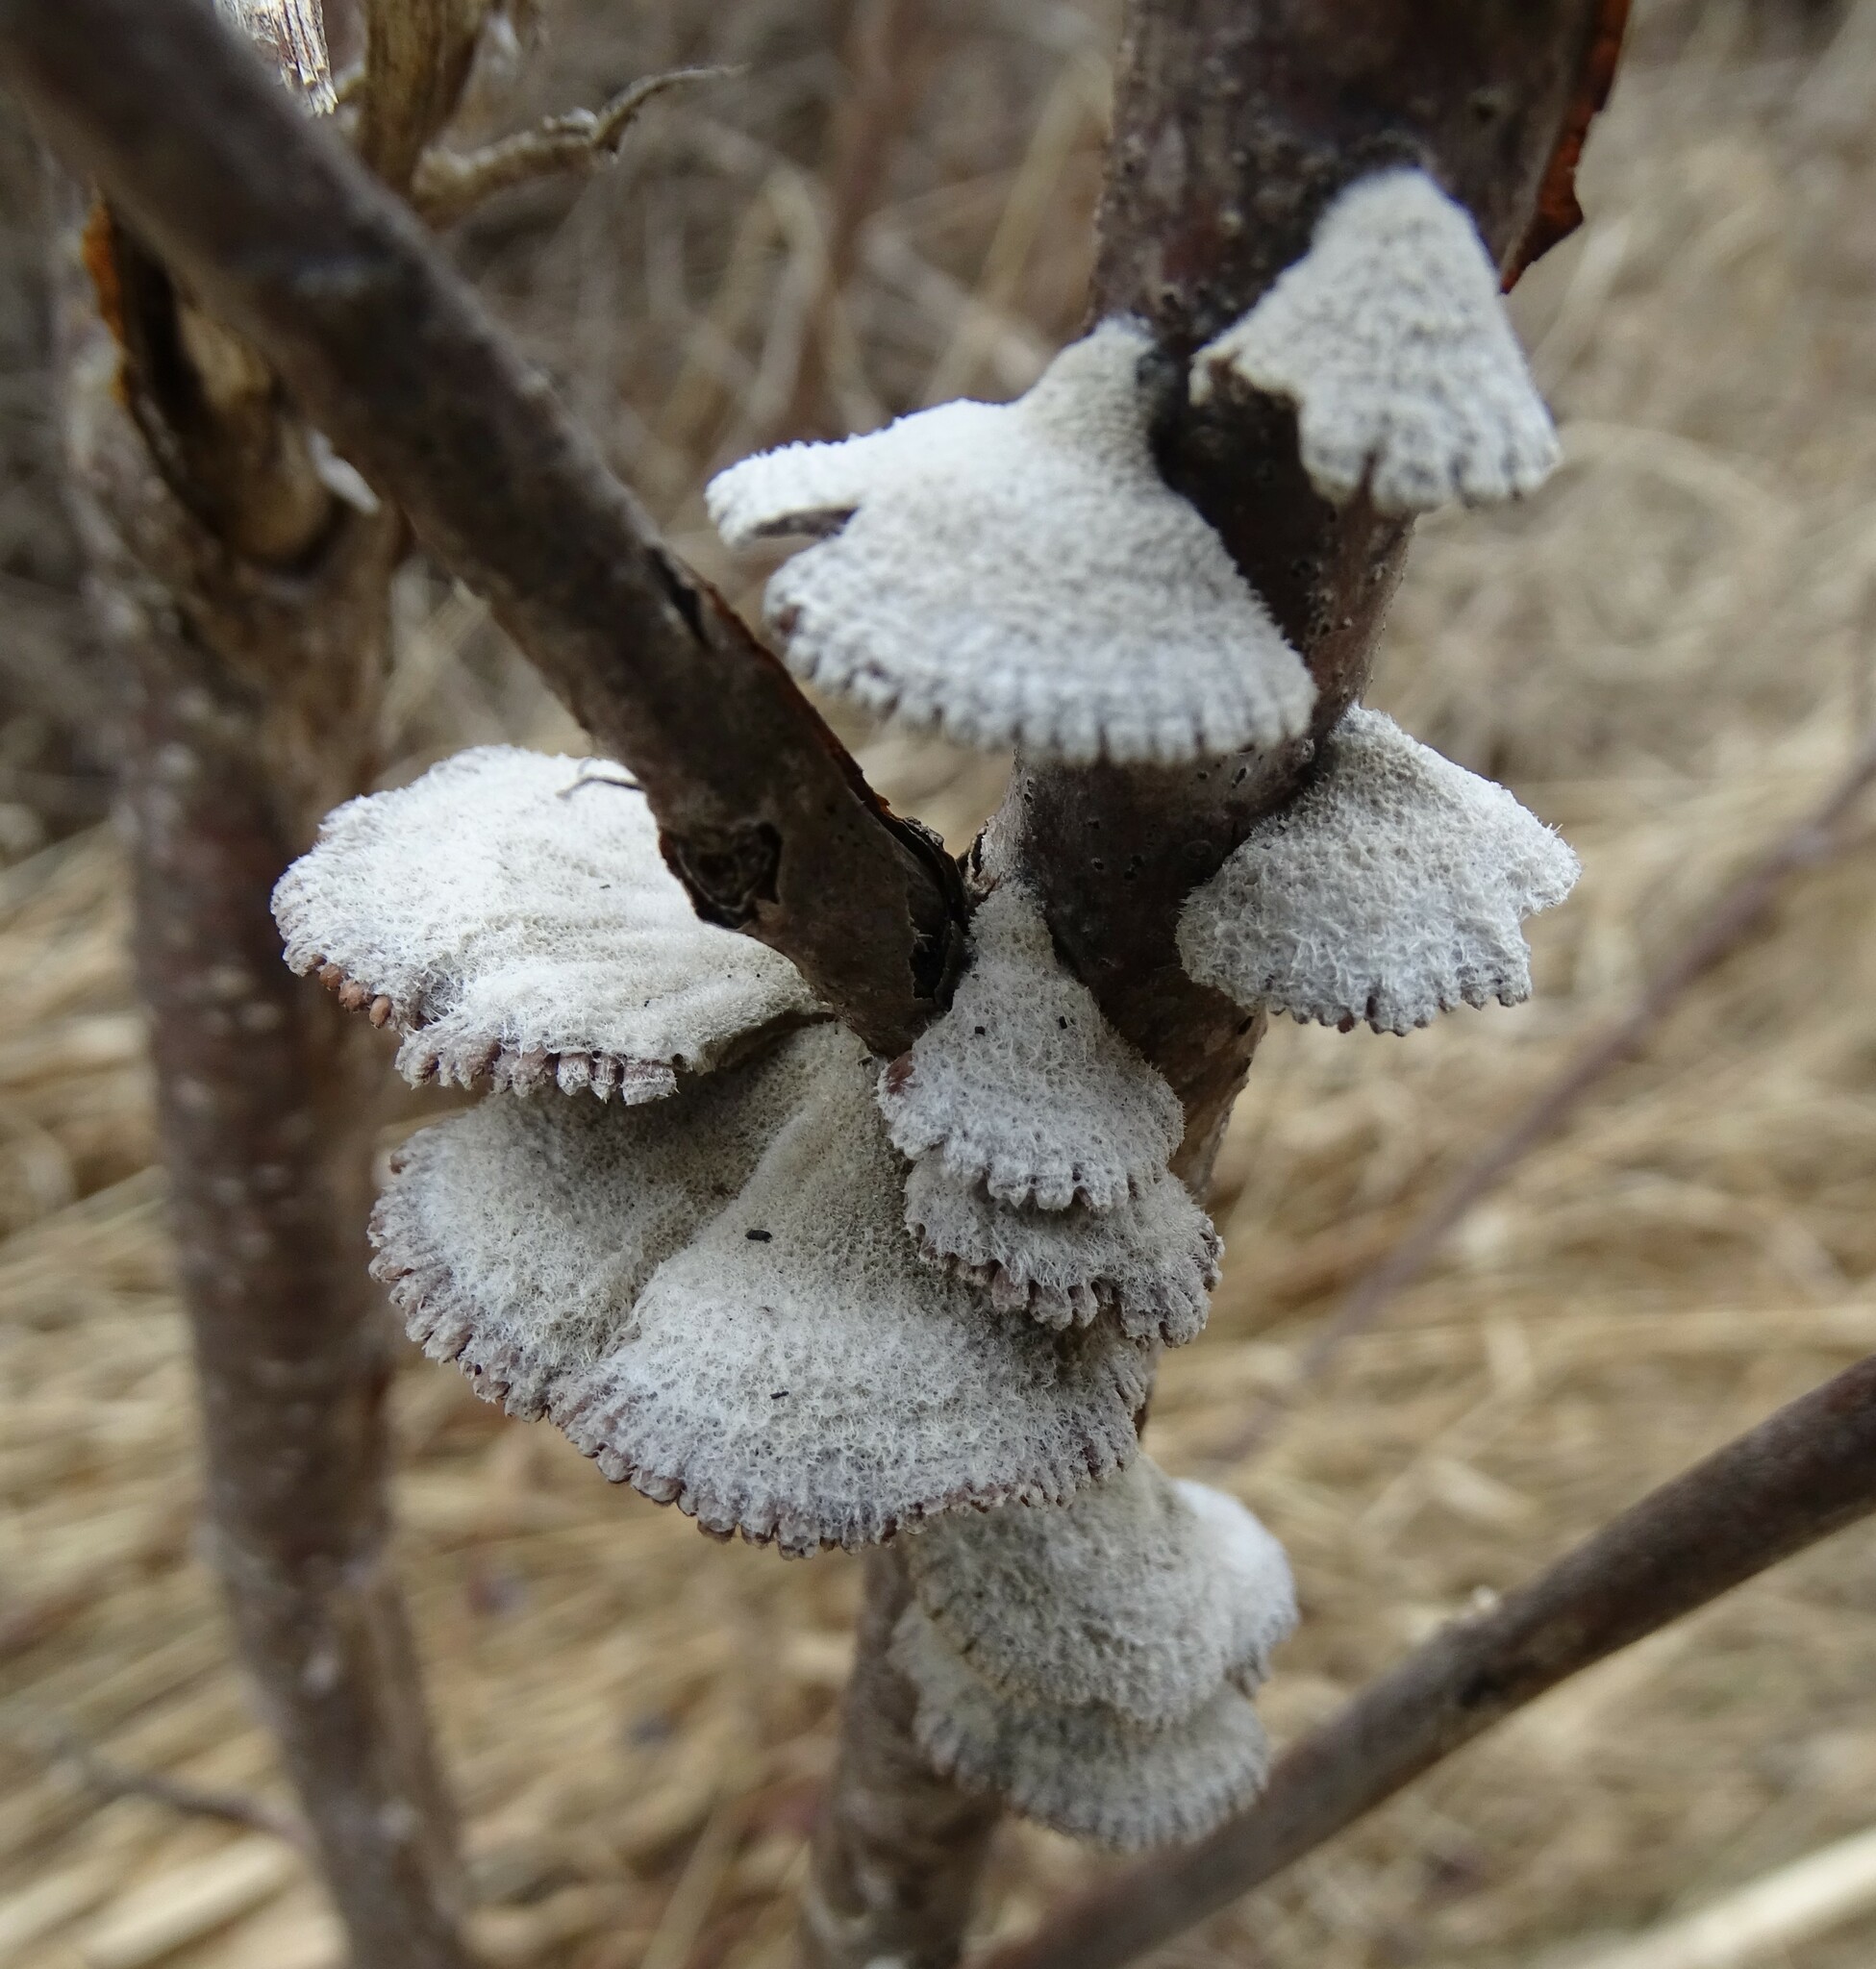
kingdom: Fungi
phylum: Basidiomycota
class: Agaricomycetes
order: Agaricales
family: Schizophyllaceae
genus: Schizophyllum
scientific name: Schizophyllum commune
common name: Common porecrust
